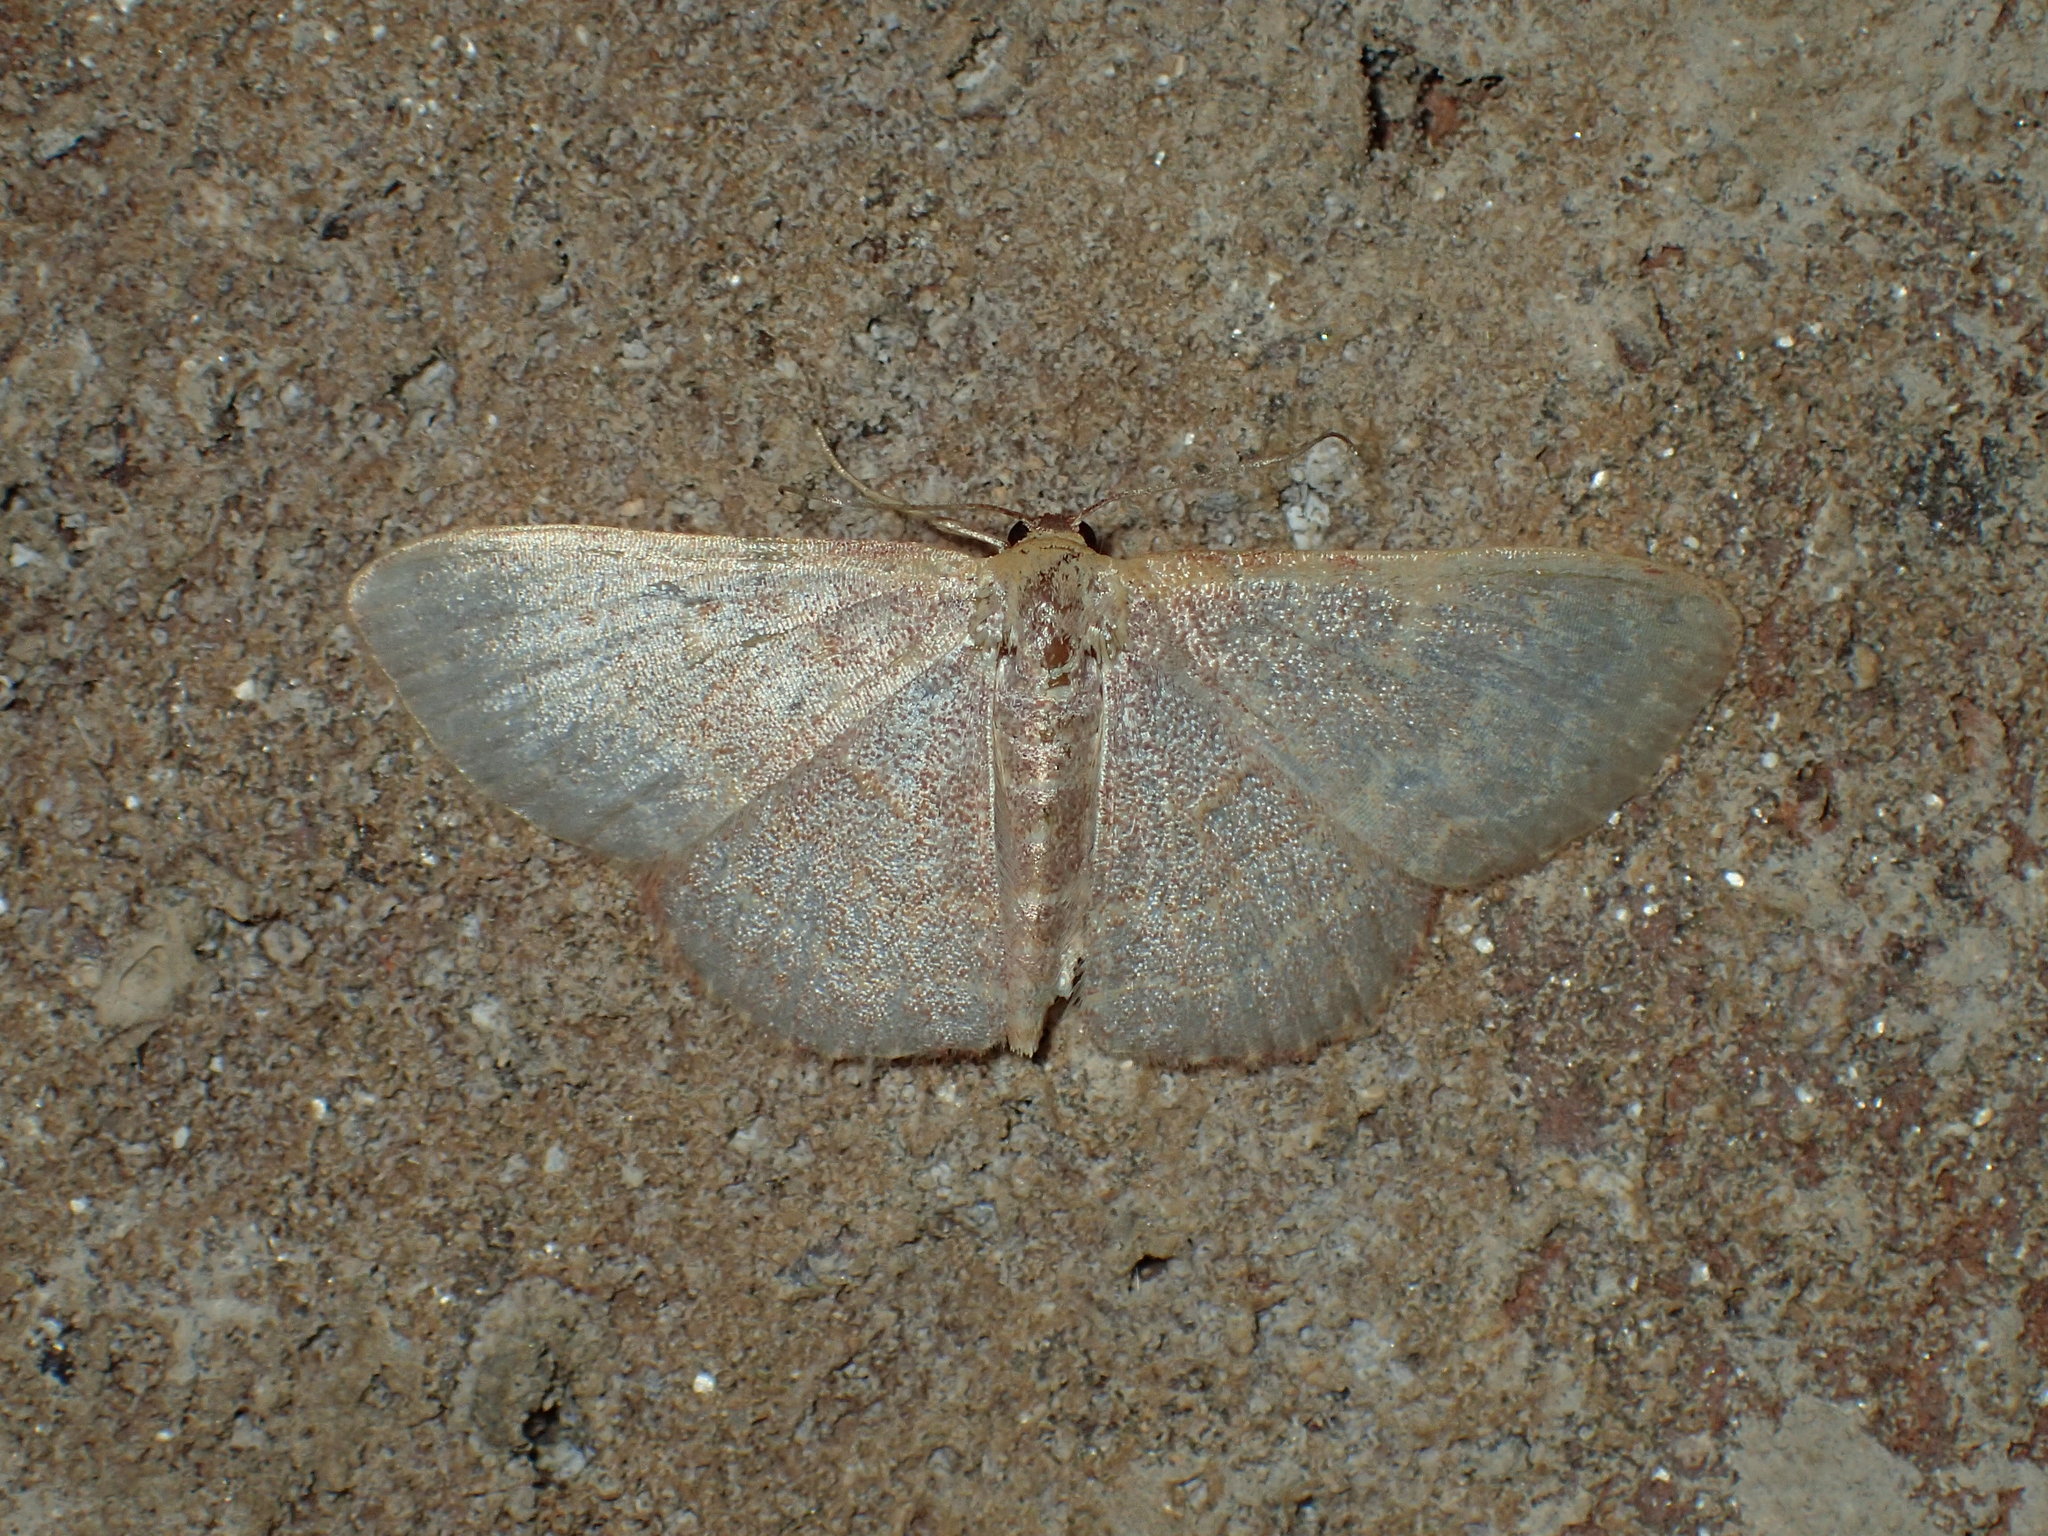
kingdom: Animalia
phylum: Arthropoda
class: Insecta
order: Lepidoptera
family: Geometridae
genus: Leptostales
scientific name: Leptostales pannaria
